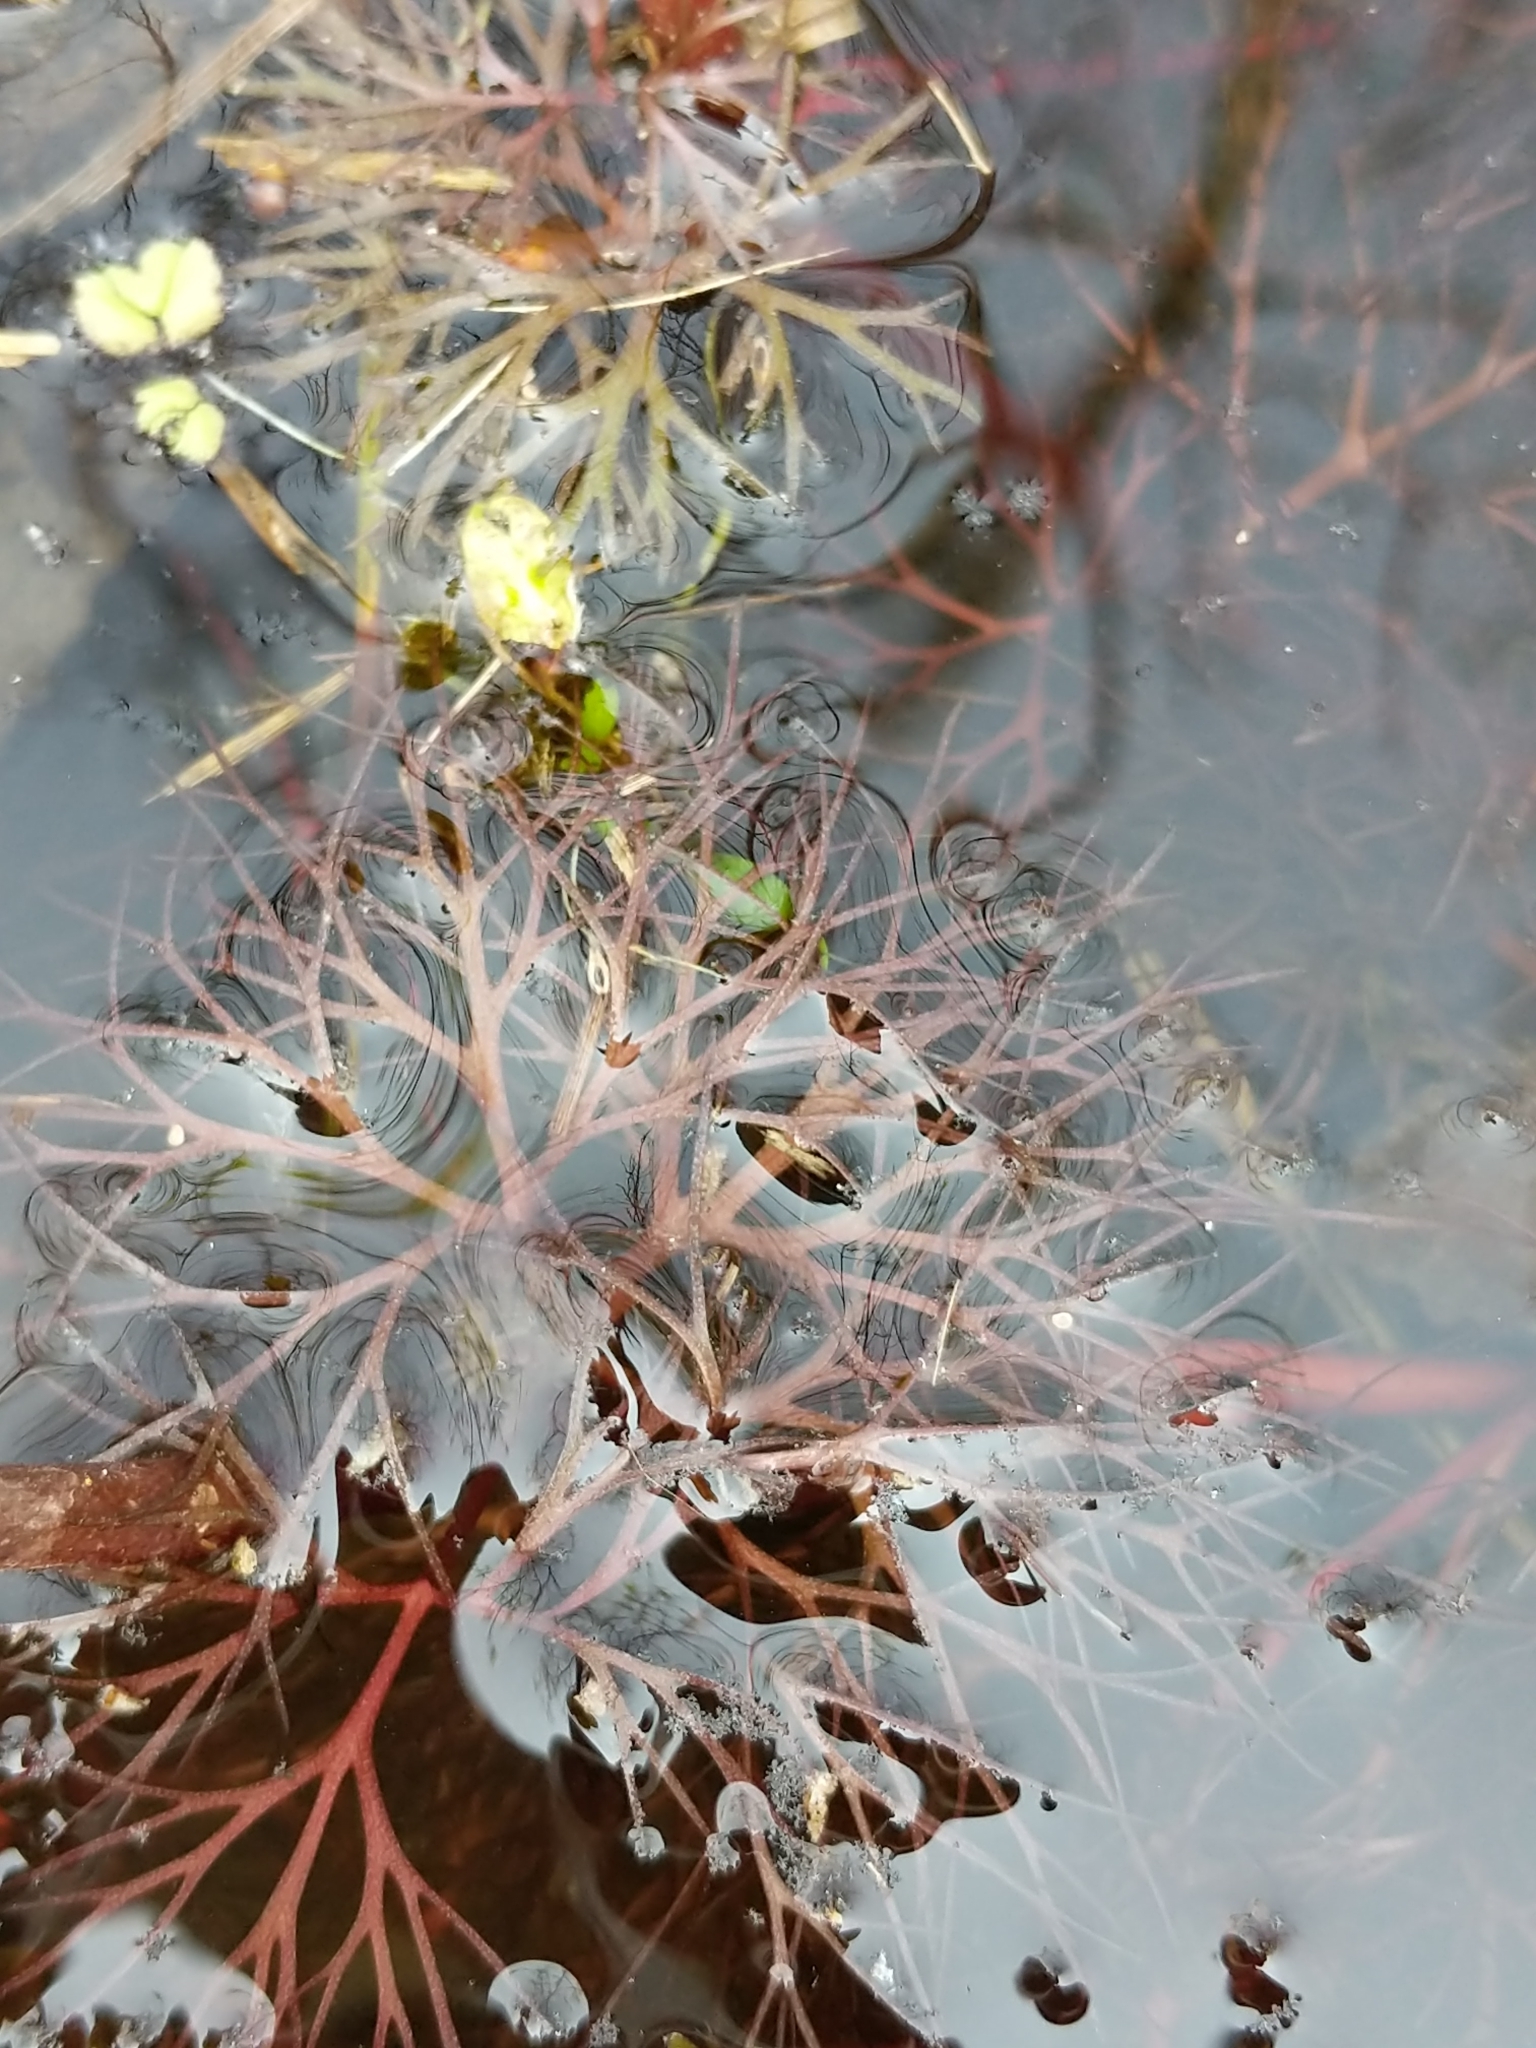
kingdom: Plantae
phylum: Tracheophyta
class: Magnoliopsida
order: Ranunculales
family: Ranunculaceae
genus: Ranunculus
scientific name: Ranunculus flabellaris
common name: Yellow water-crowfoot
